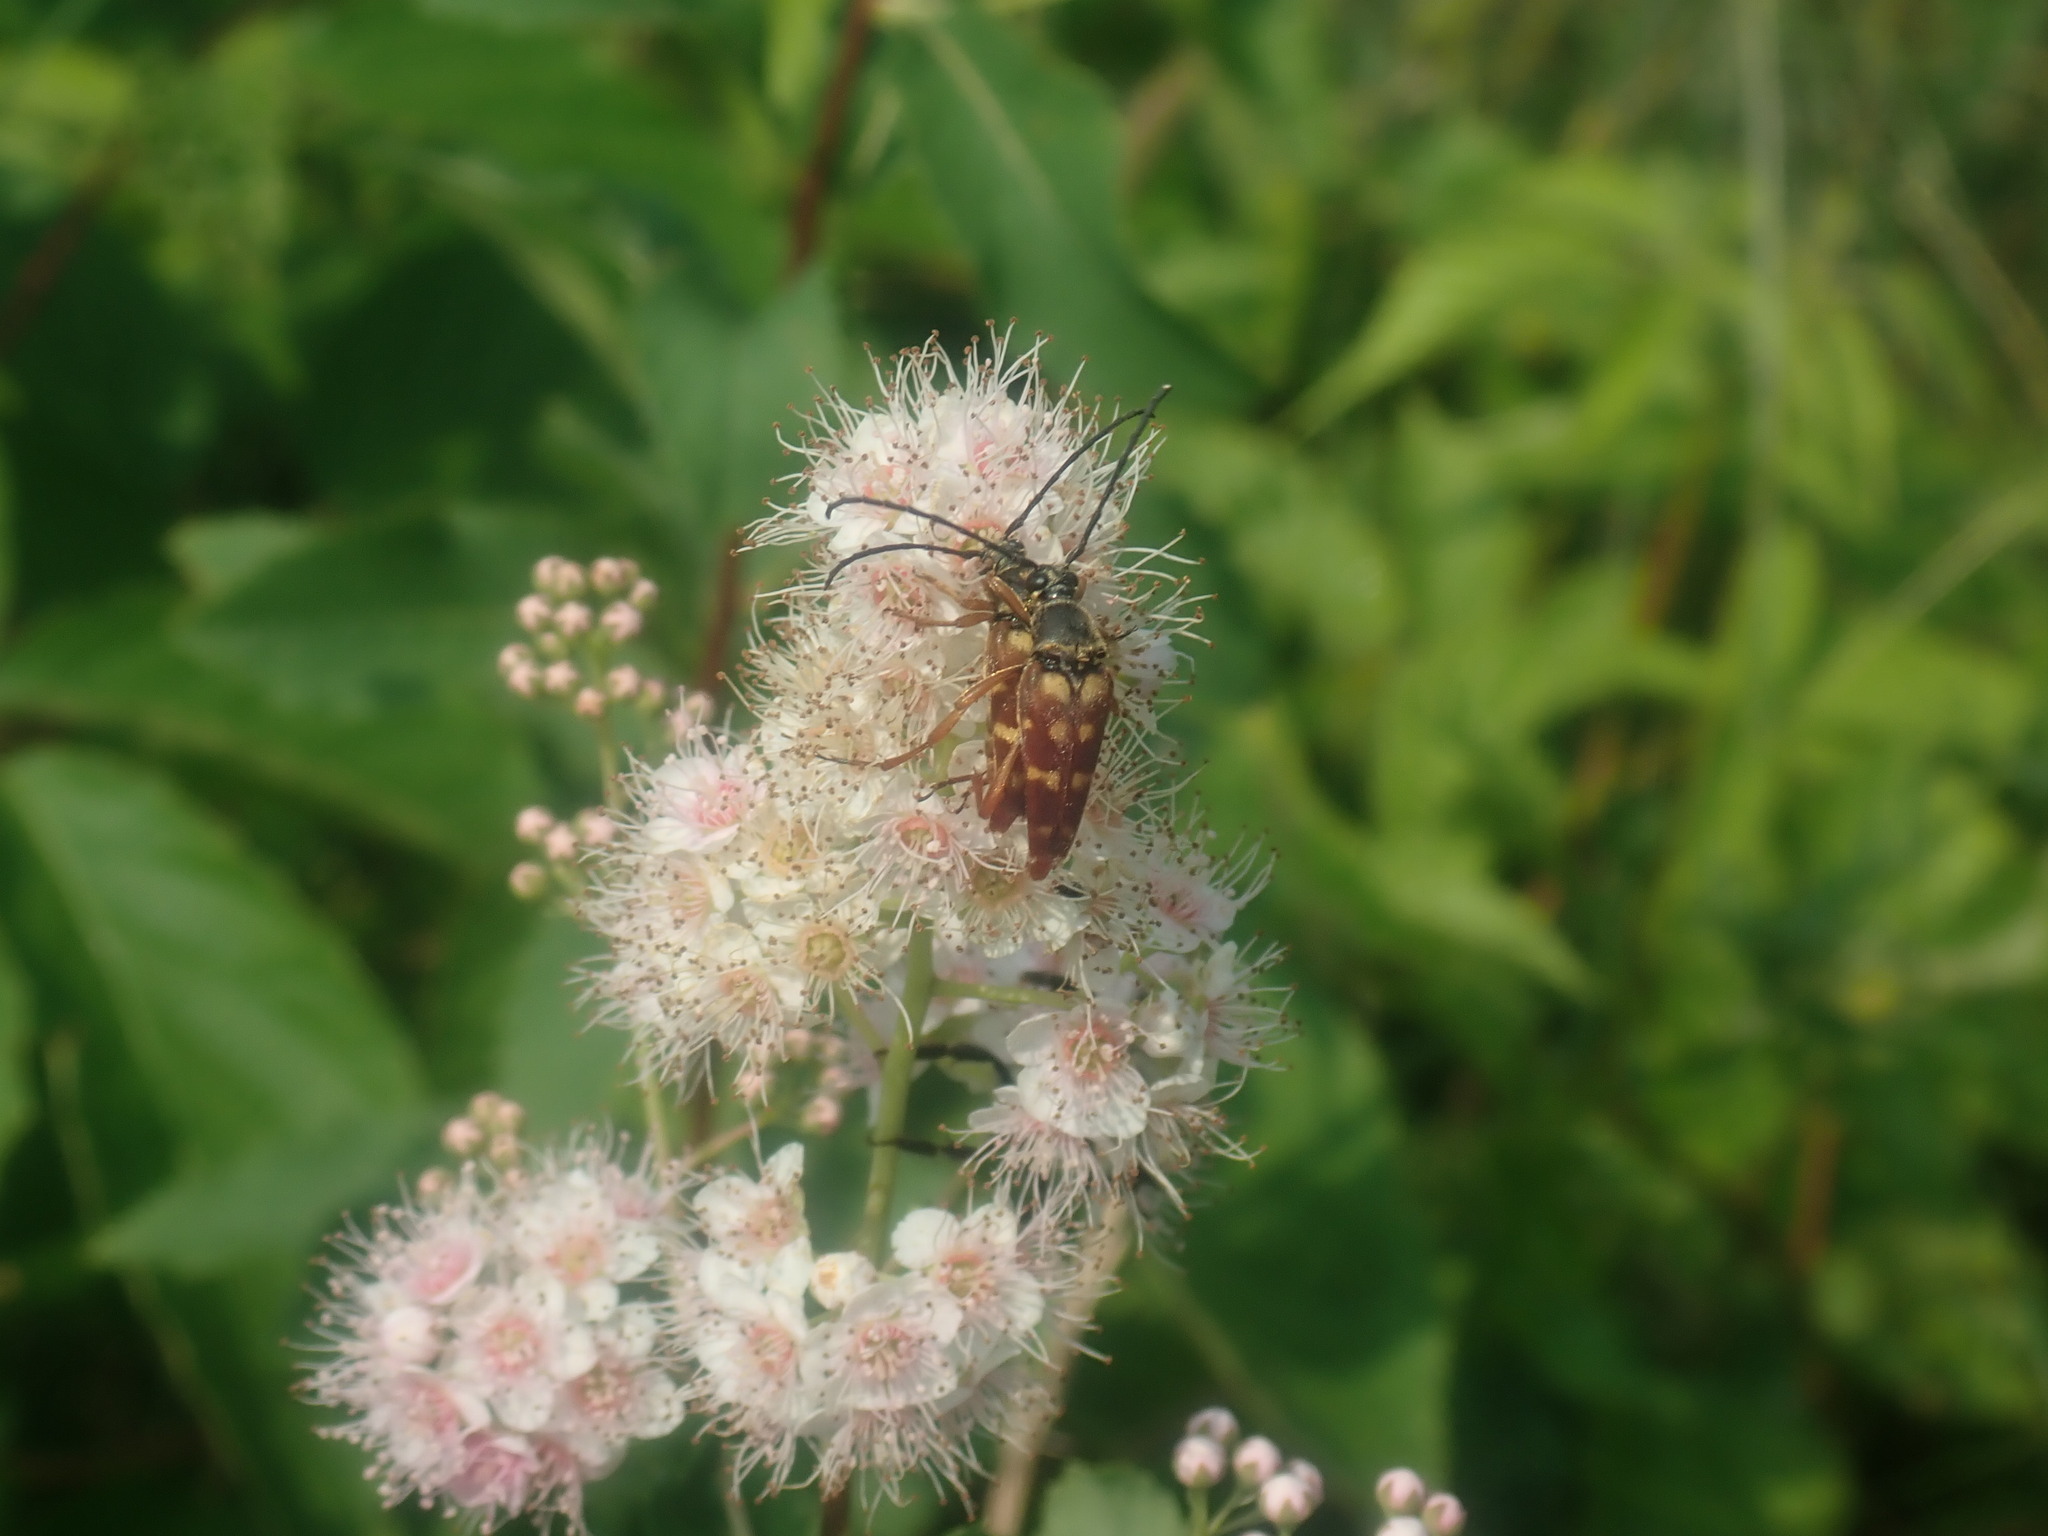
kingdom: Animalia
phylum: Arthropoda
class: Insecta
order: Coleoptera
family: Cerambycidae
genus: Typocerus
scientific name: Typocerus velutinus
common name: Banded longhorn beetle
